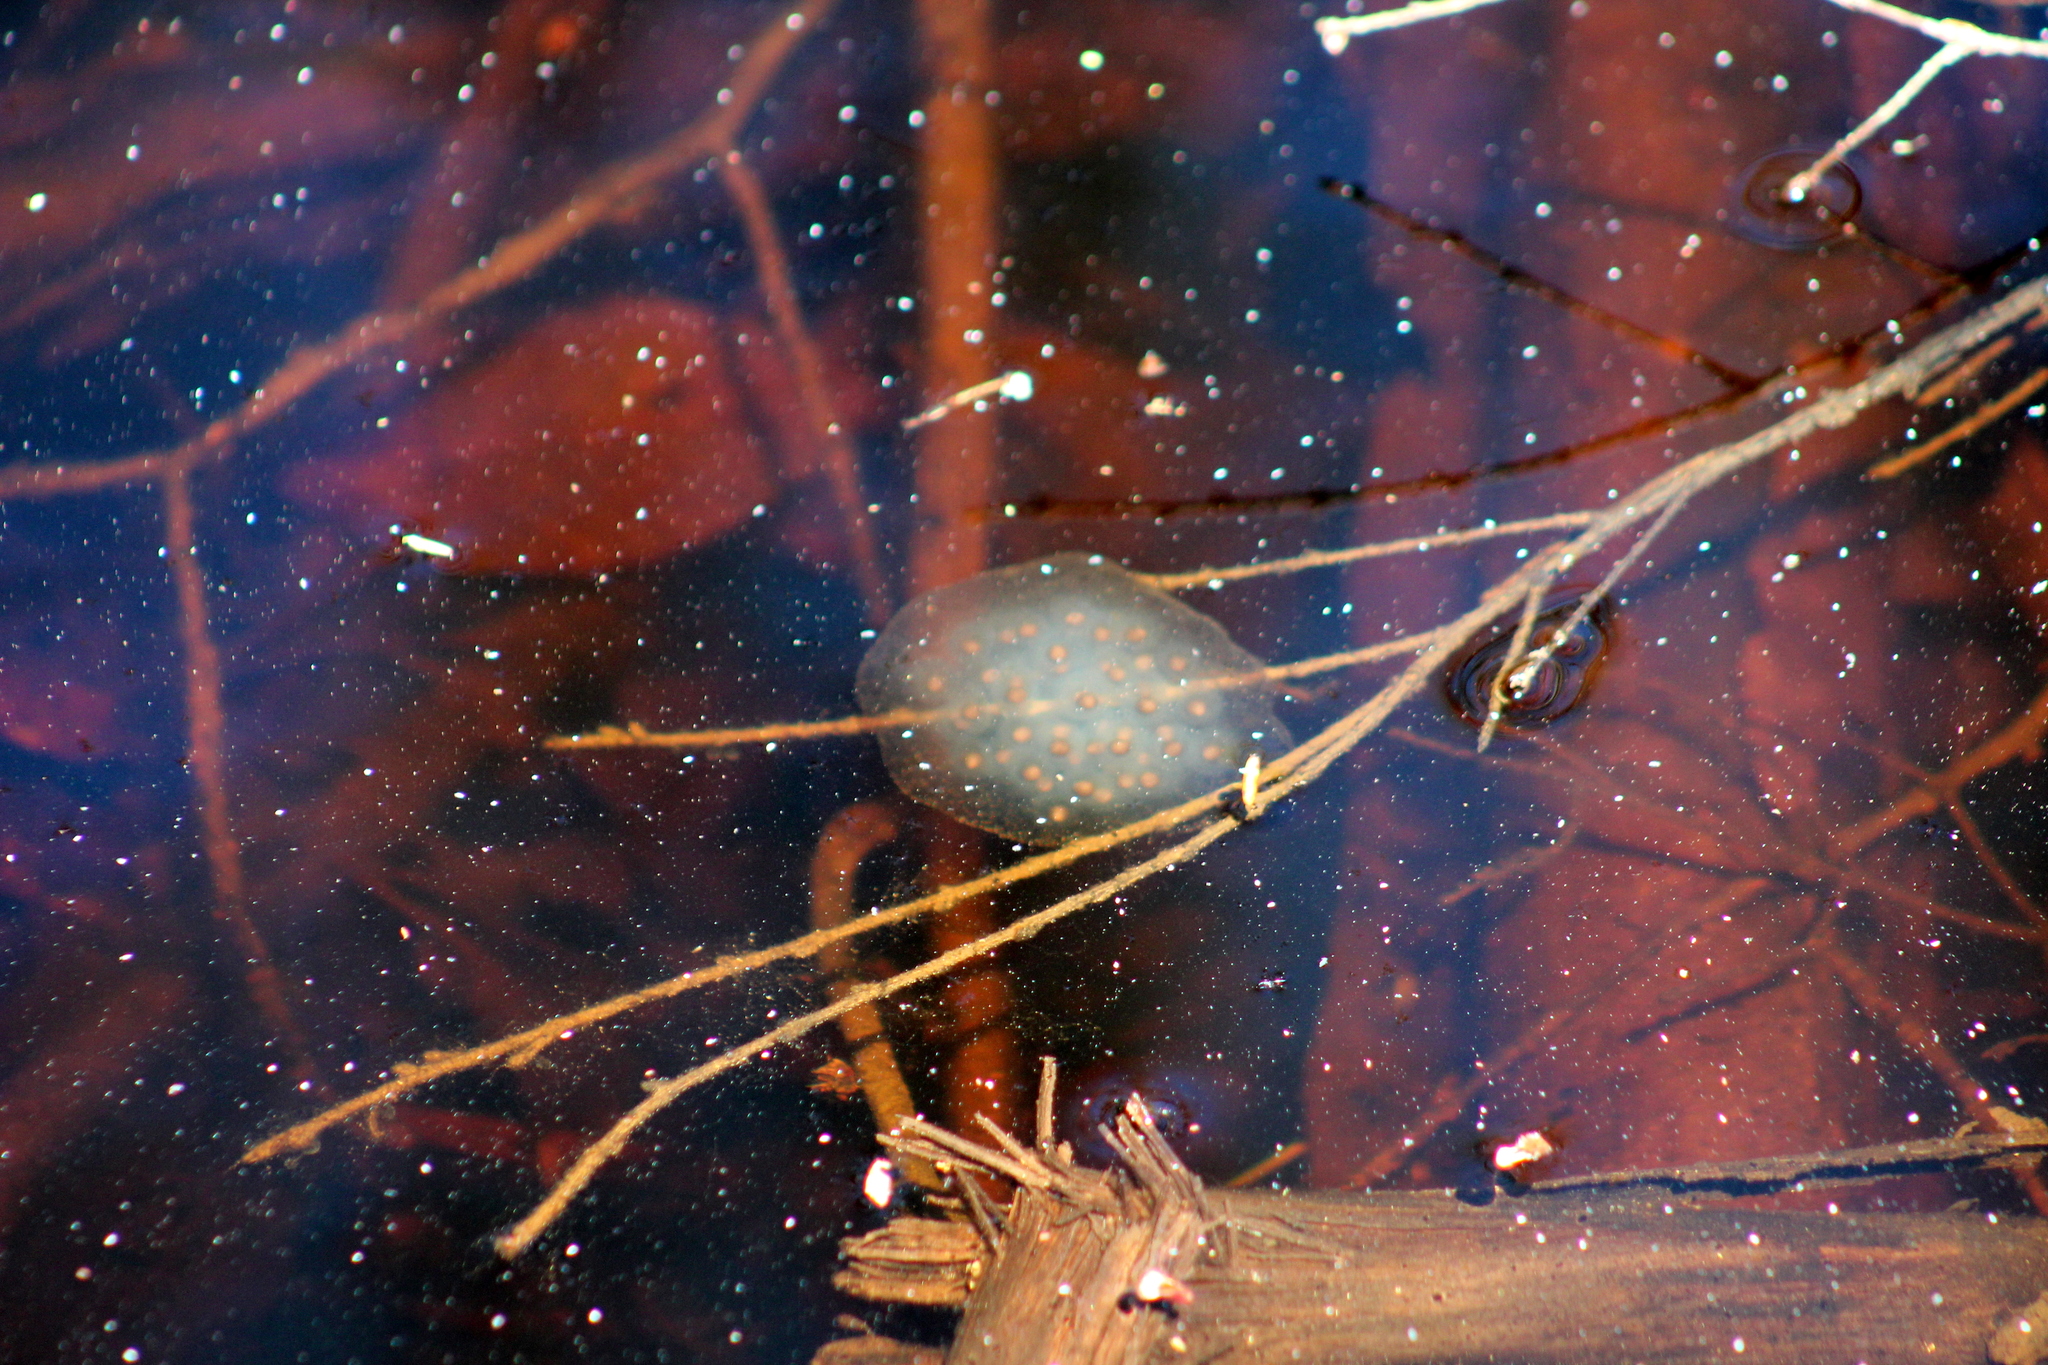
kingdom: Animalia
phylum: Chordata
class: Amphibia
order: Caudata
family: Ambystomatidae
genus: Ambystoma
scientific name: Ambystoma maculatum
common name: Spotted salamander
